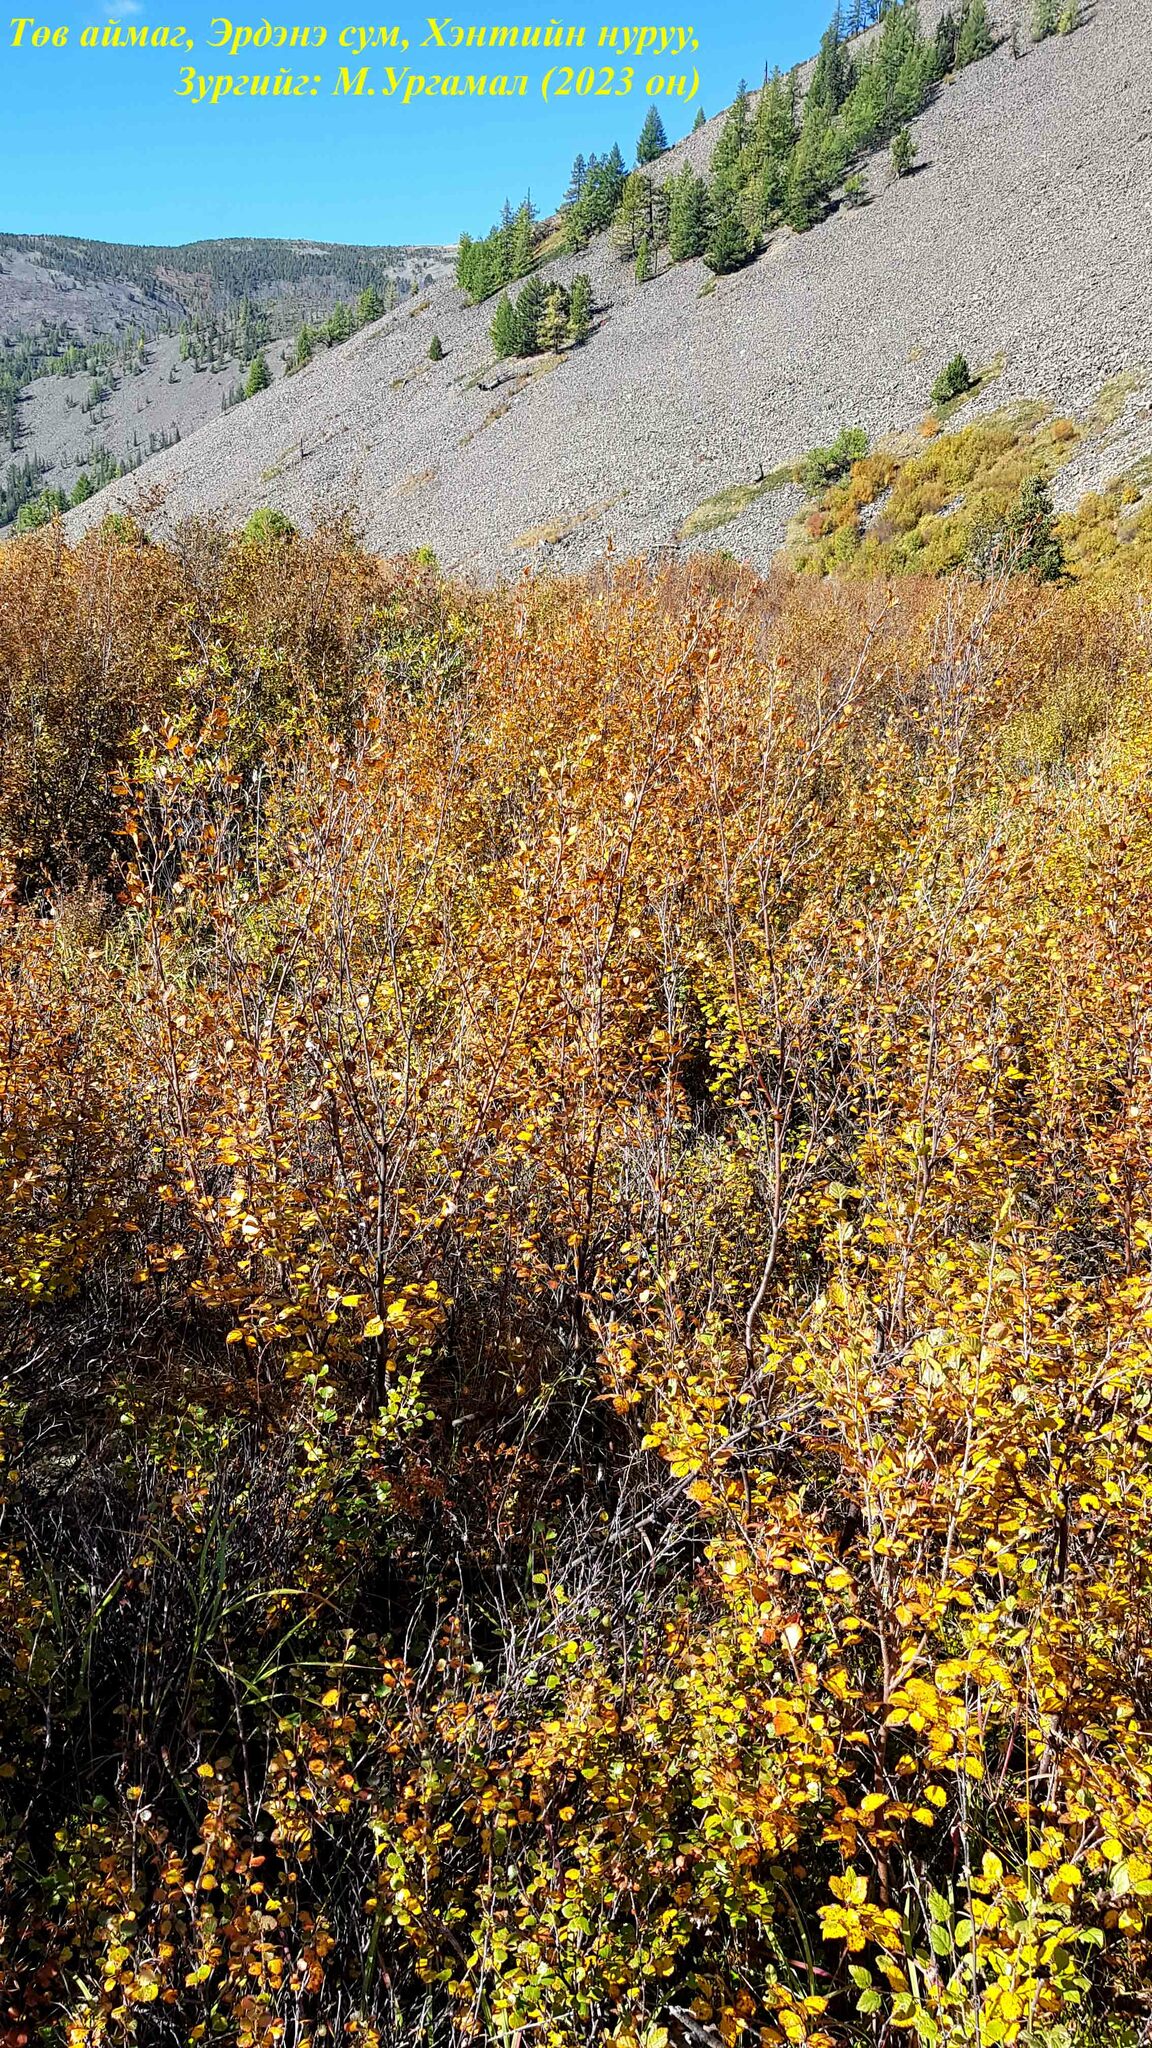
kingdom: Plantae
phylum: Tracheophyta
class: Magnoliopsida
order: Fagales
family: Betulaceae
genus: Betula
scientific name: Betula glandulosa
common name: Dwarf birch
